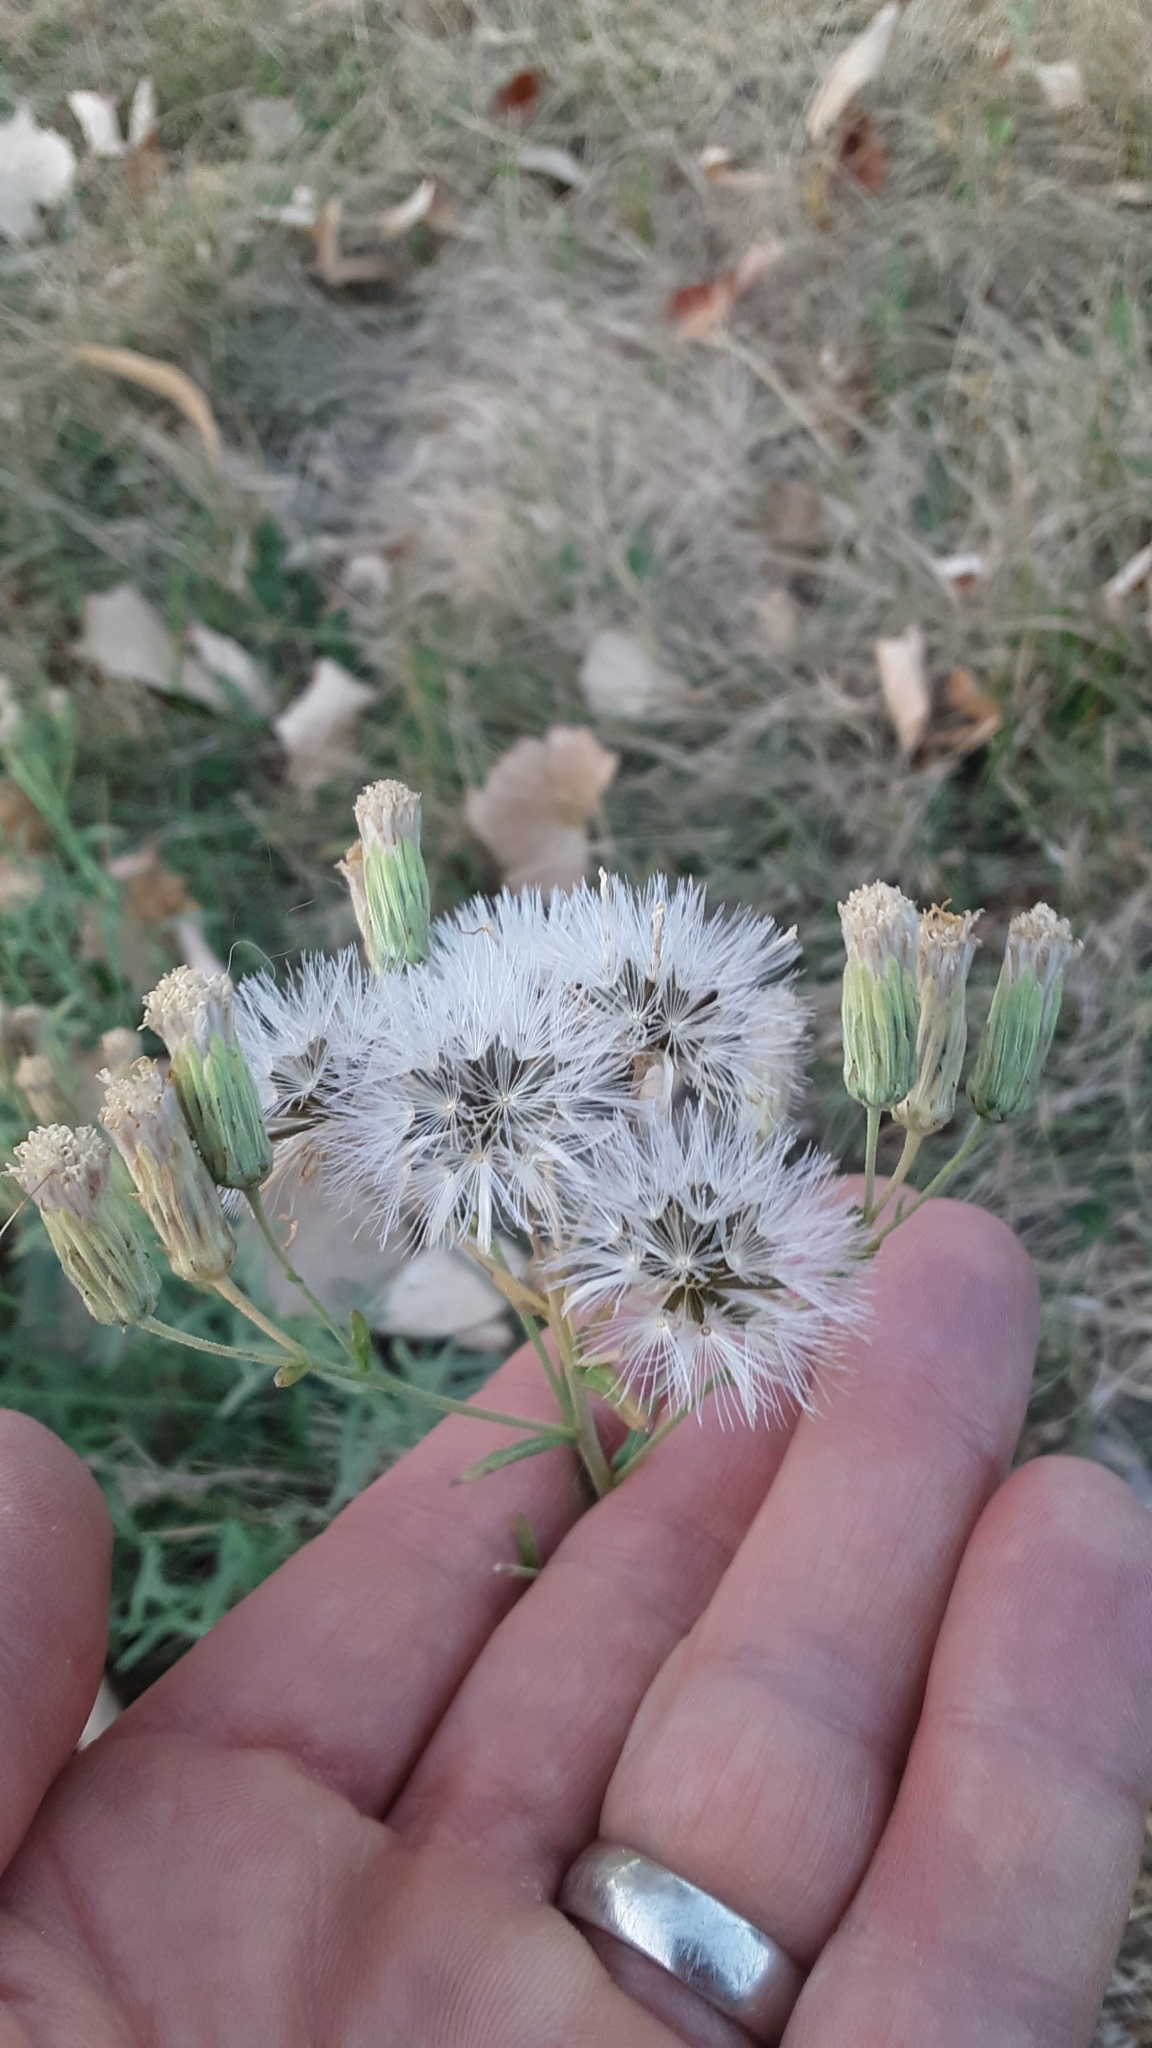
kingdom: Plantae
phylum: Tracheophyta
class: Magnoliopsida
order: Asterales
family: Asteraceae
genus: Brickellia
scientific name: Brickellia eupatorioides
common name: False boneset
